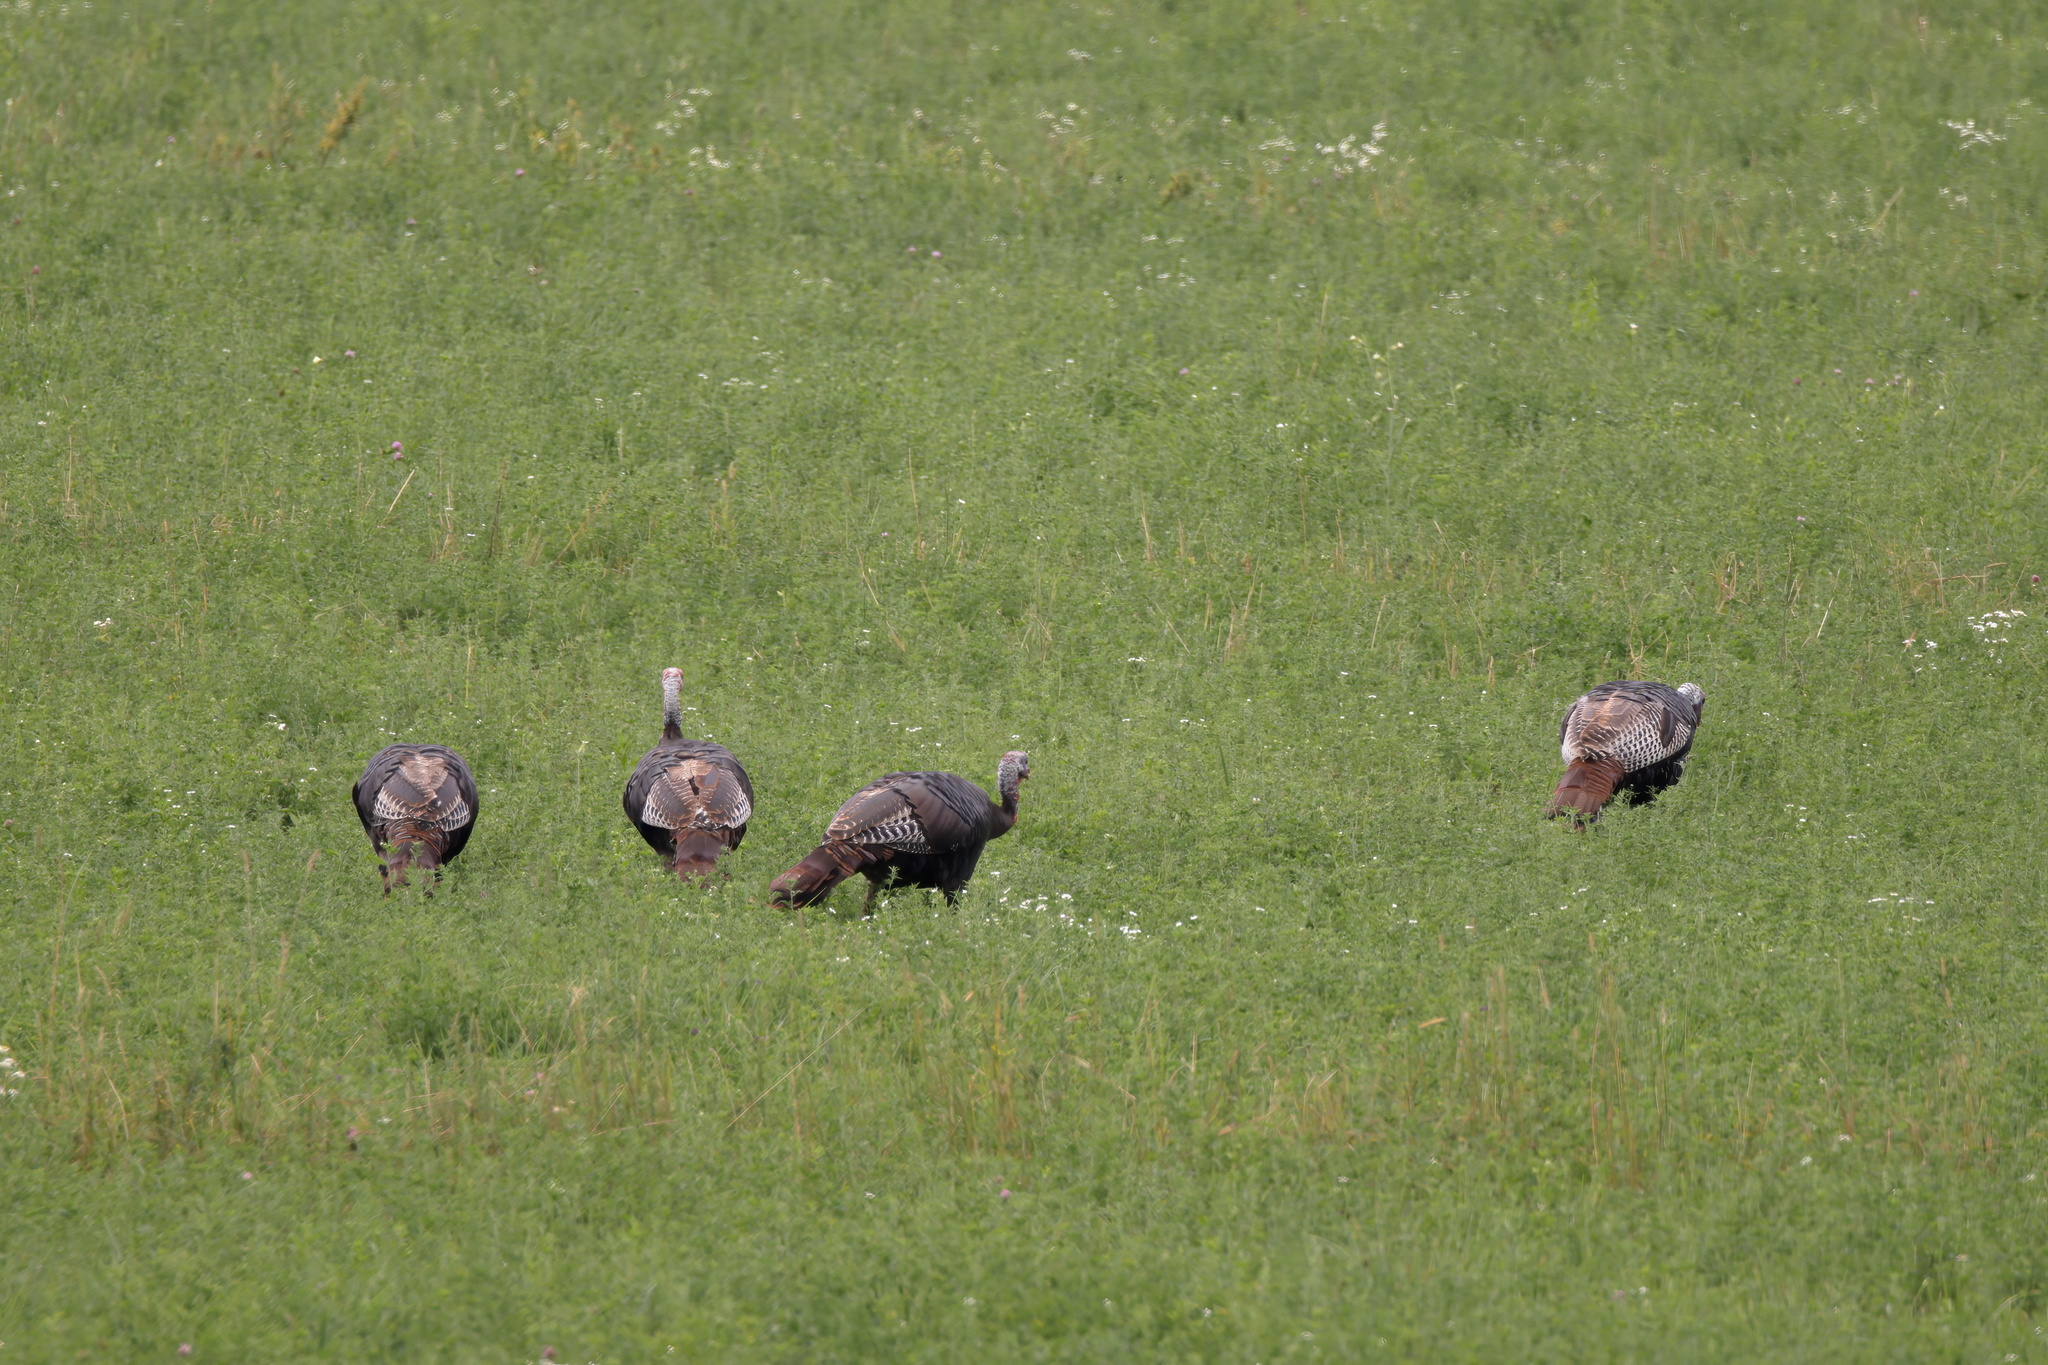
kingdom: Animalia
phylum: Chordata
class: Aves
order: Galliformes
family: Phasianidae
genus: Meleagris
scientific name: Meleagris gallopavo
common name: Wild turkey
